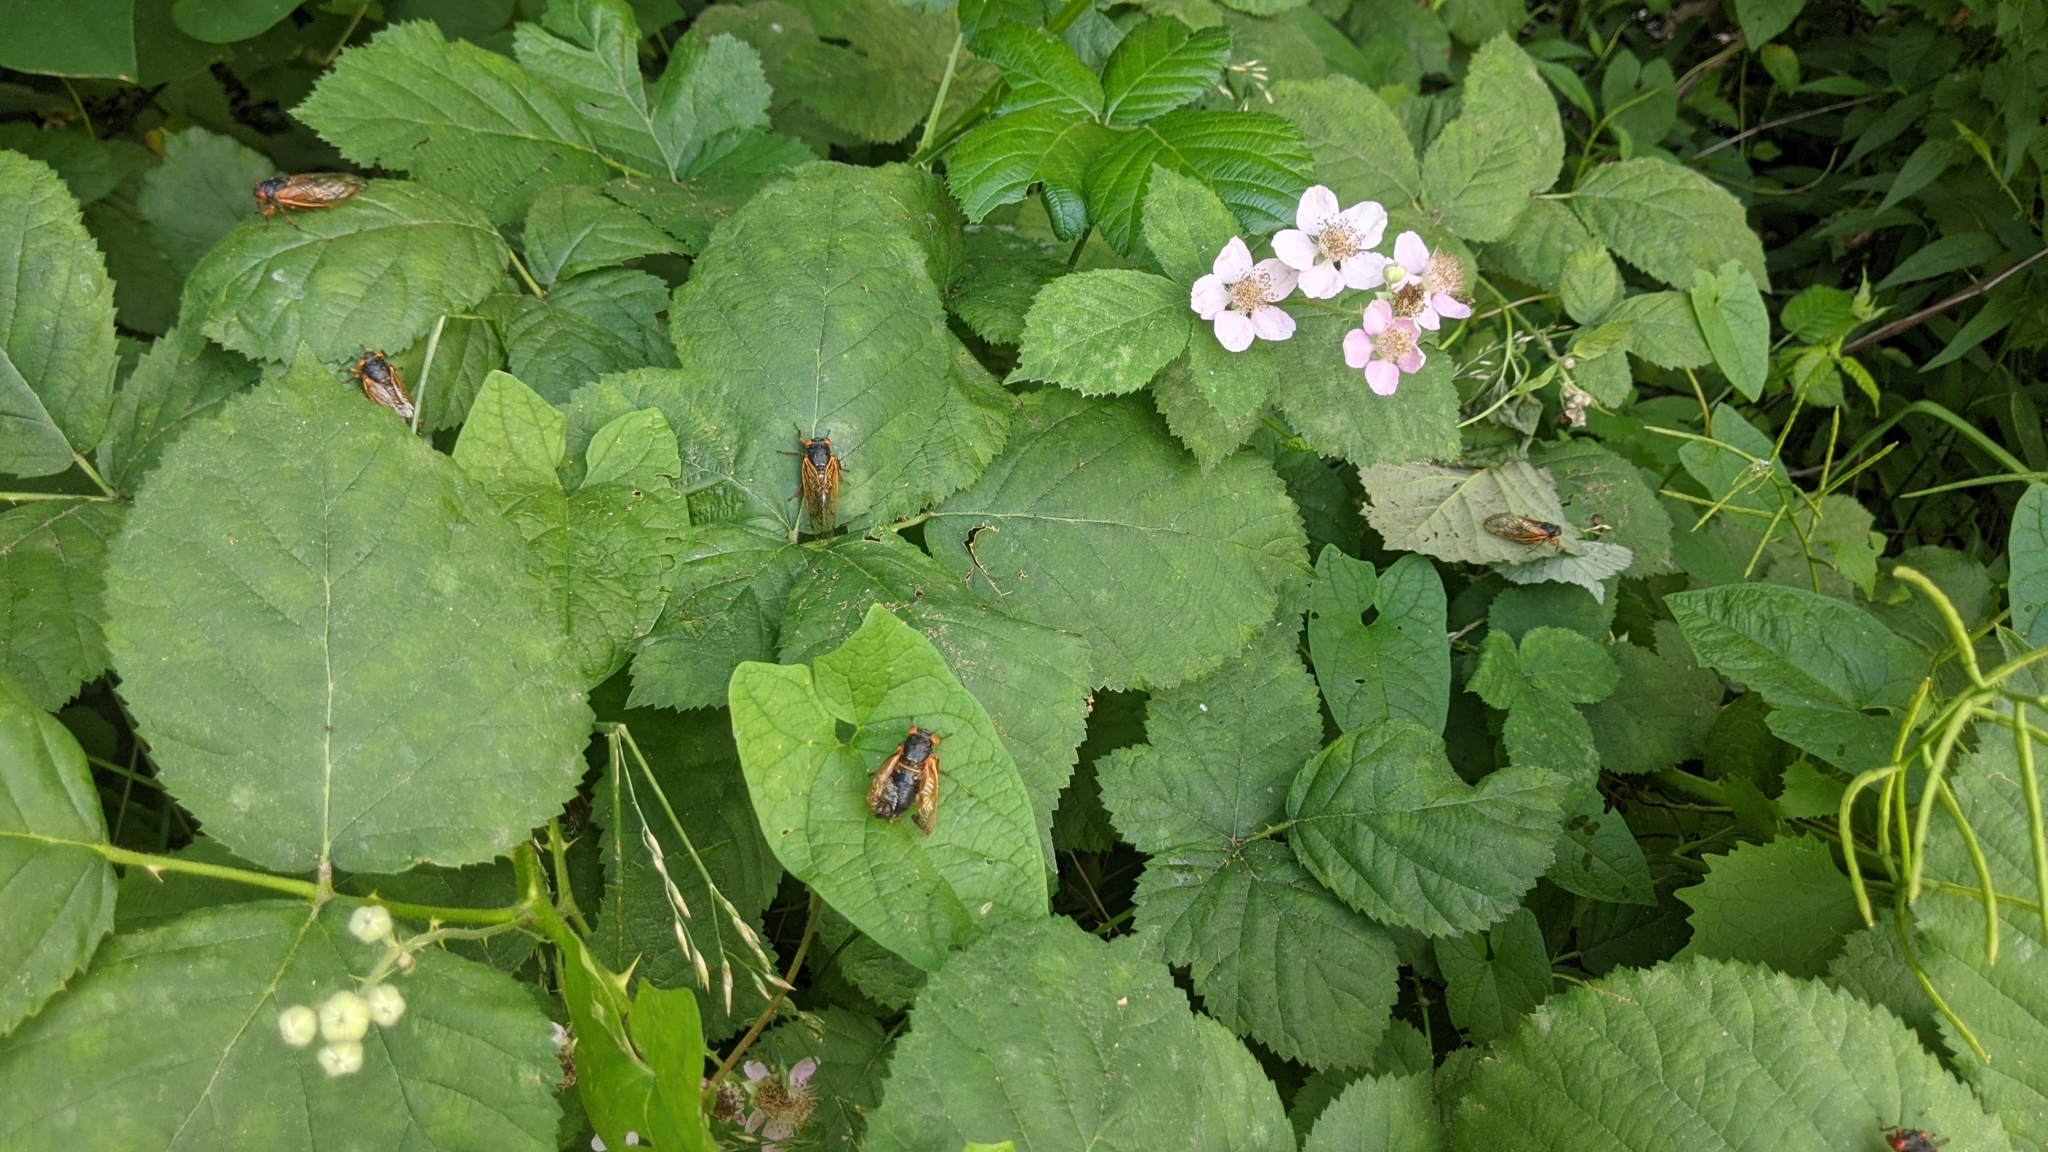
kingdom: Animalia
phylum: Arthropoda
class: Insecta
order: Hemiptera
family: Cicadidae
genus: Magicicada
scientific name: Magicicada
